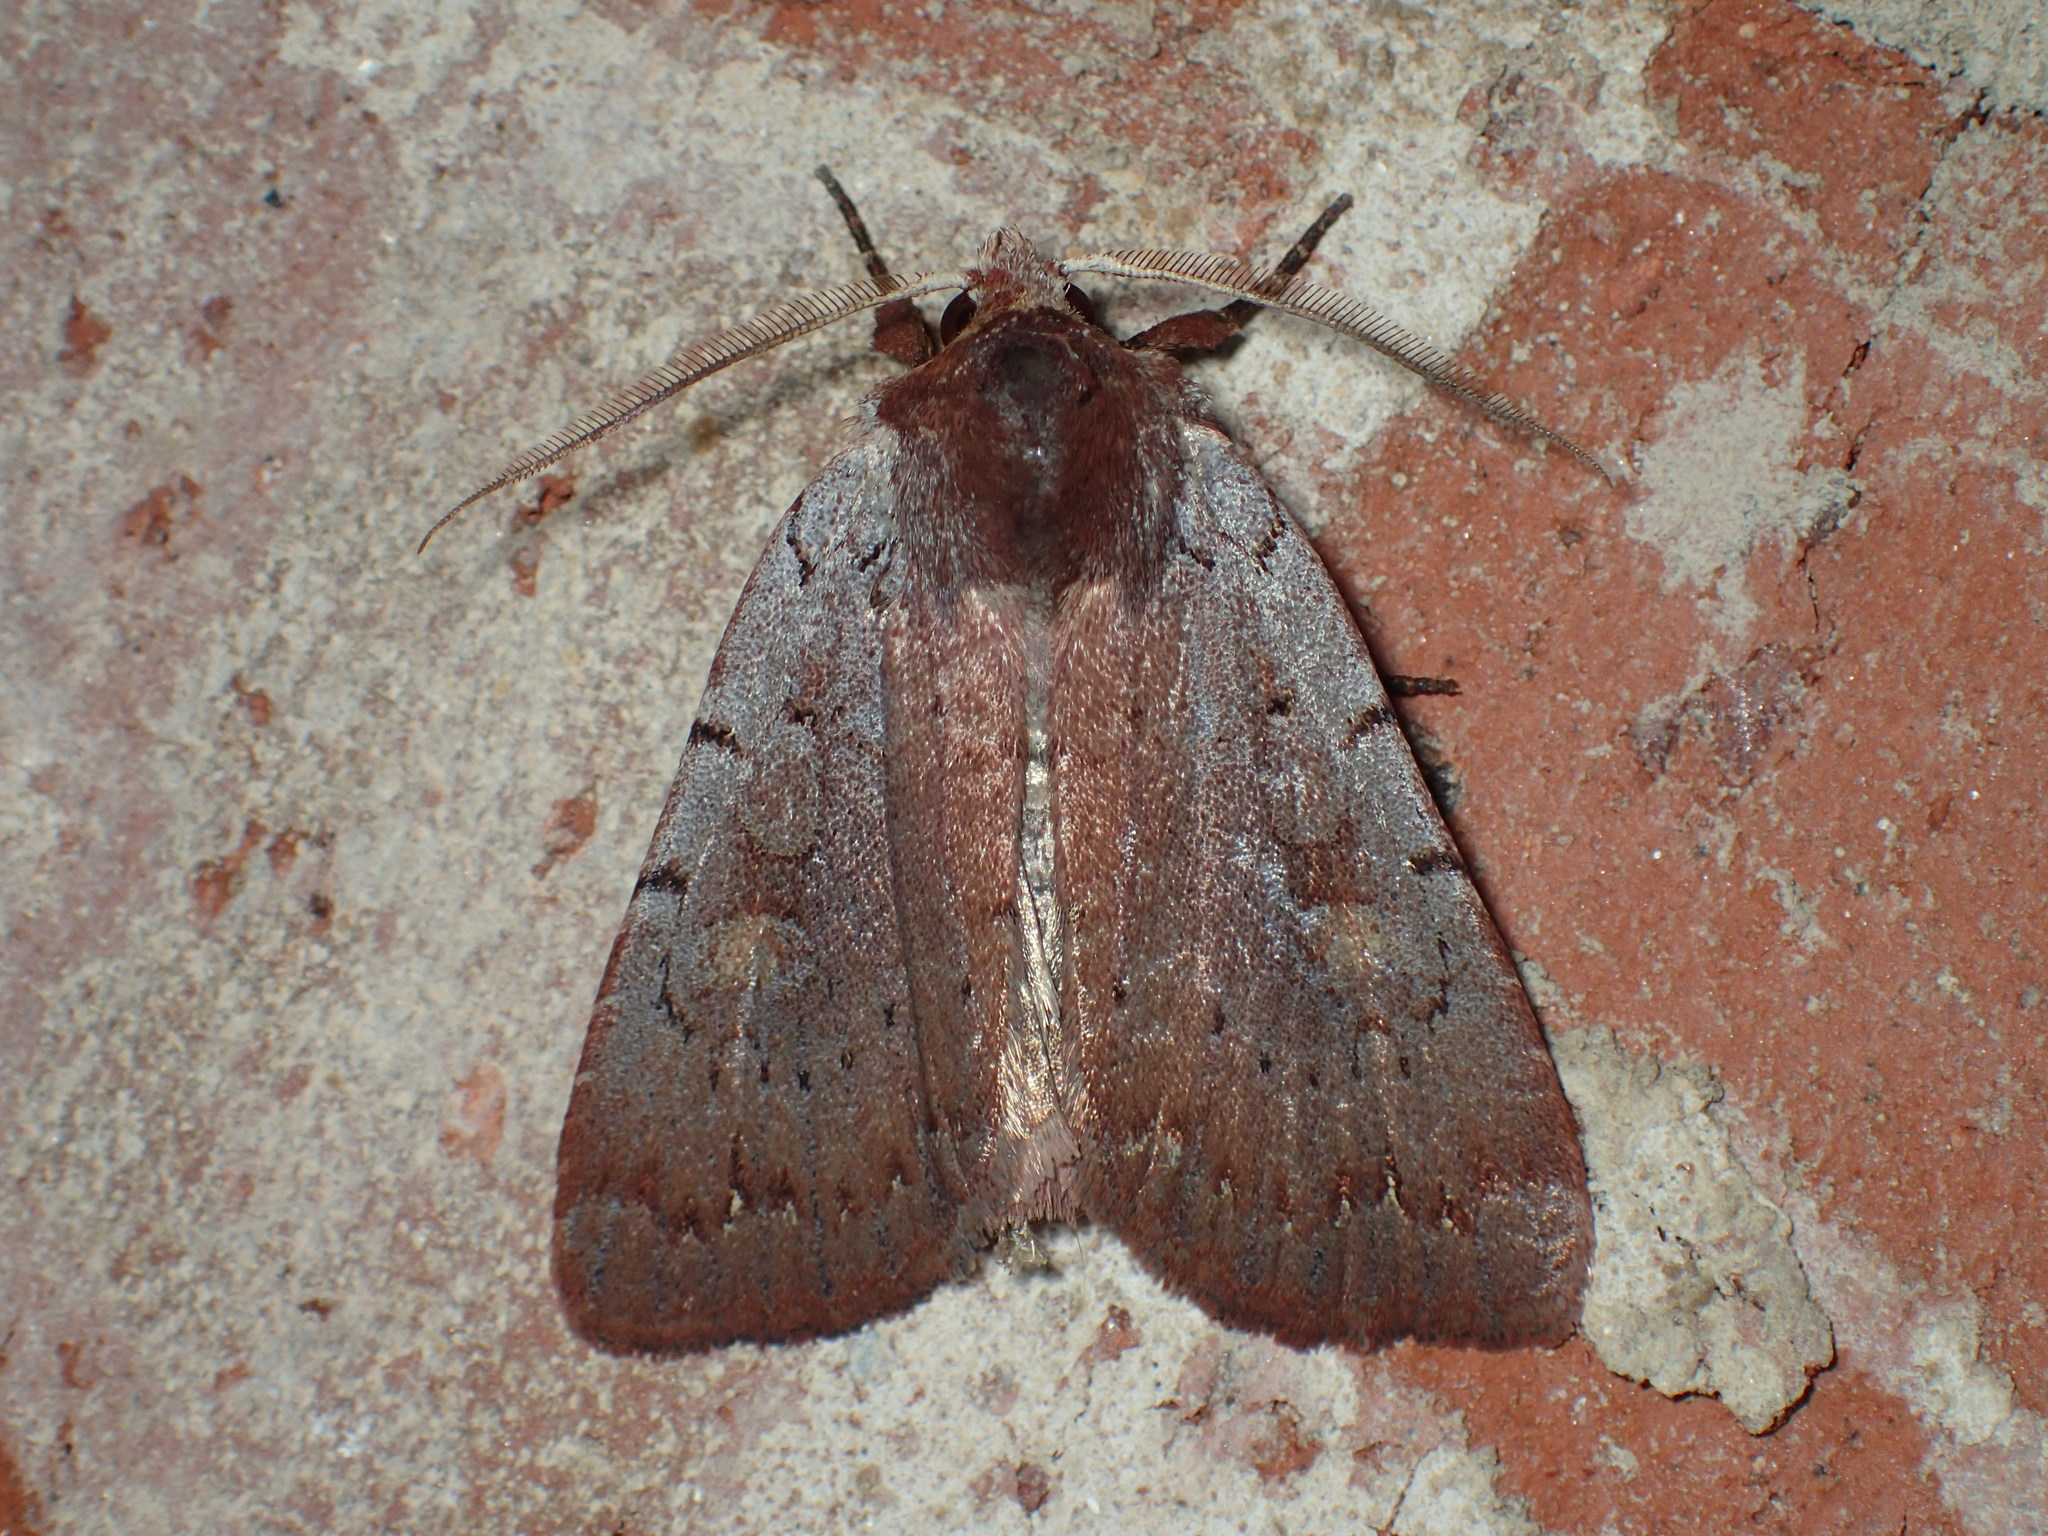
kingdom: Animalia
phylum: Arthropoda
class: Insecta
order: Lepidoptera
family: Noctuidae
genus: Xestia
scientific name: Xestia elimata
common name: Chameleon caterpillar
